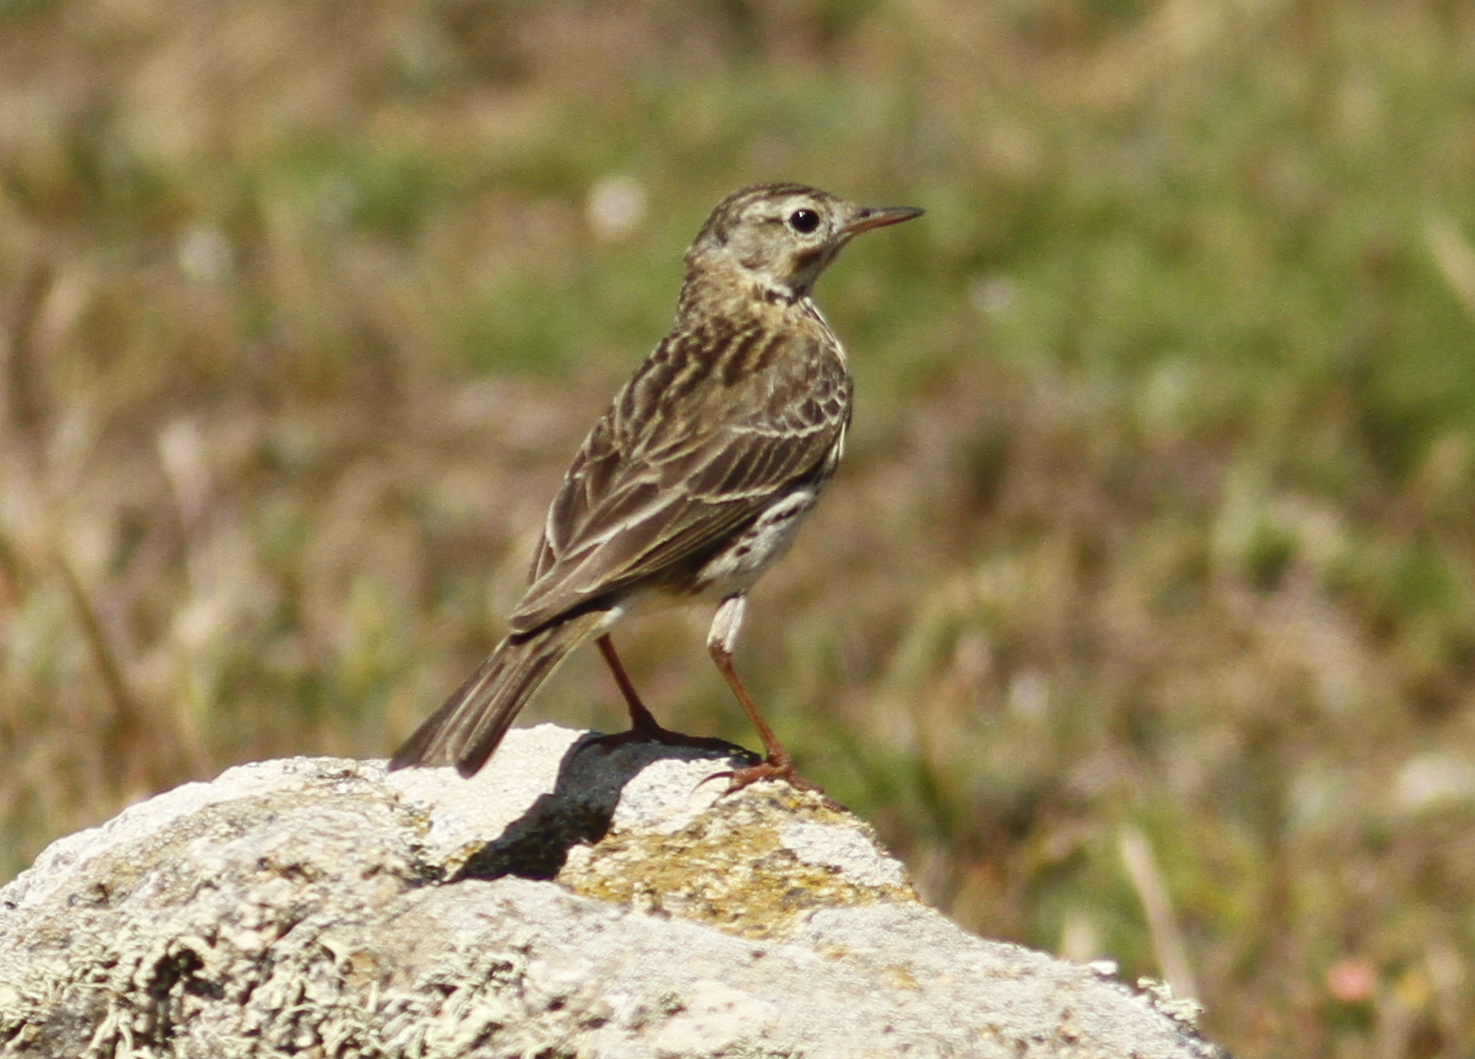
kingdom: Animalia
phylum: Chordata
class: Aves
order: Passeriformes
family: Motacillidae
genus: Anthus
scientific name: Anthus pratensis
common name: Meadow pipit
